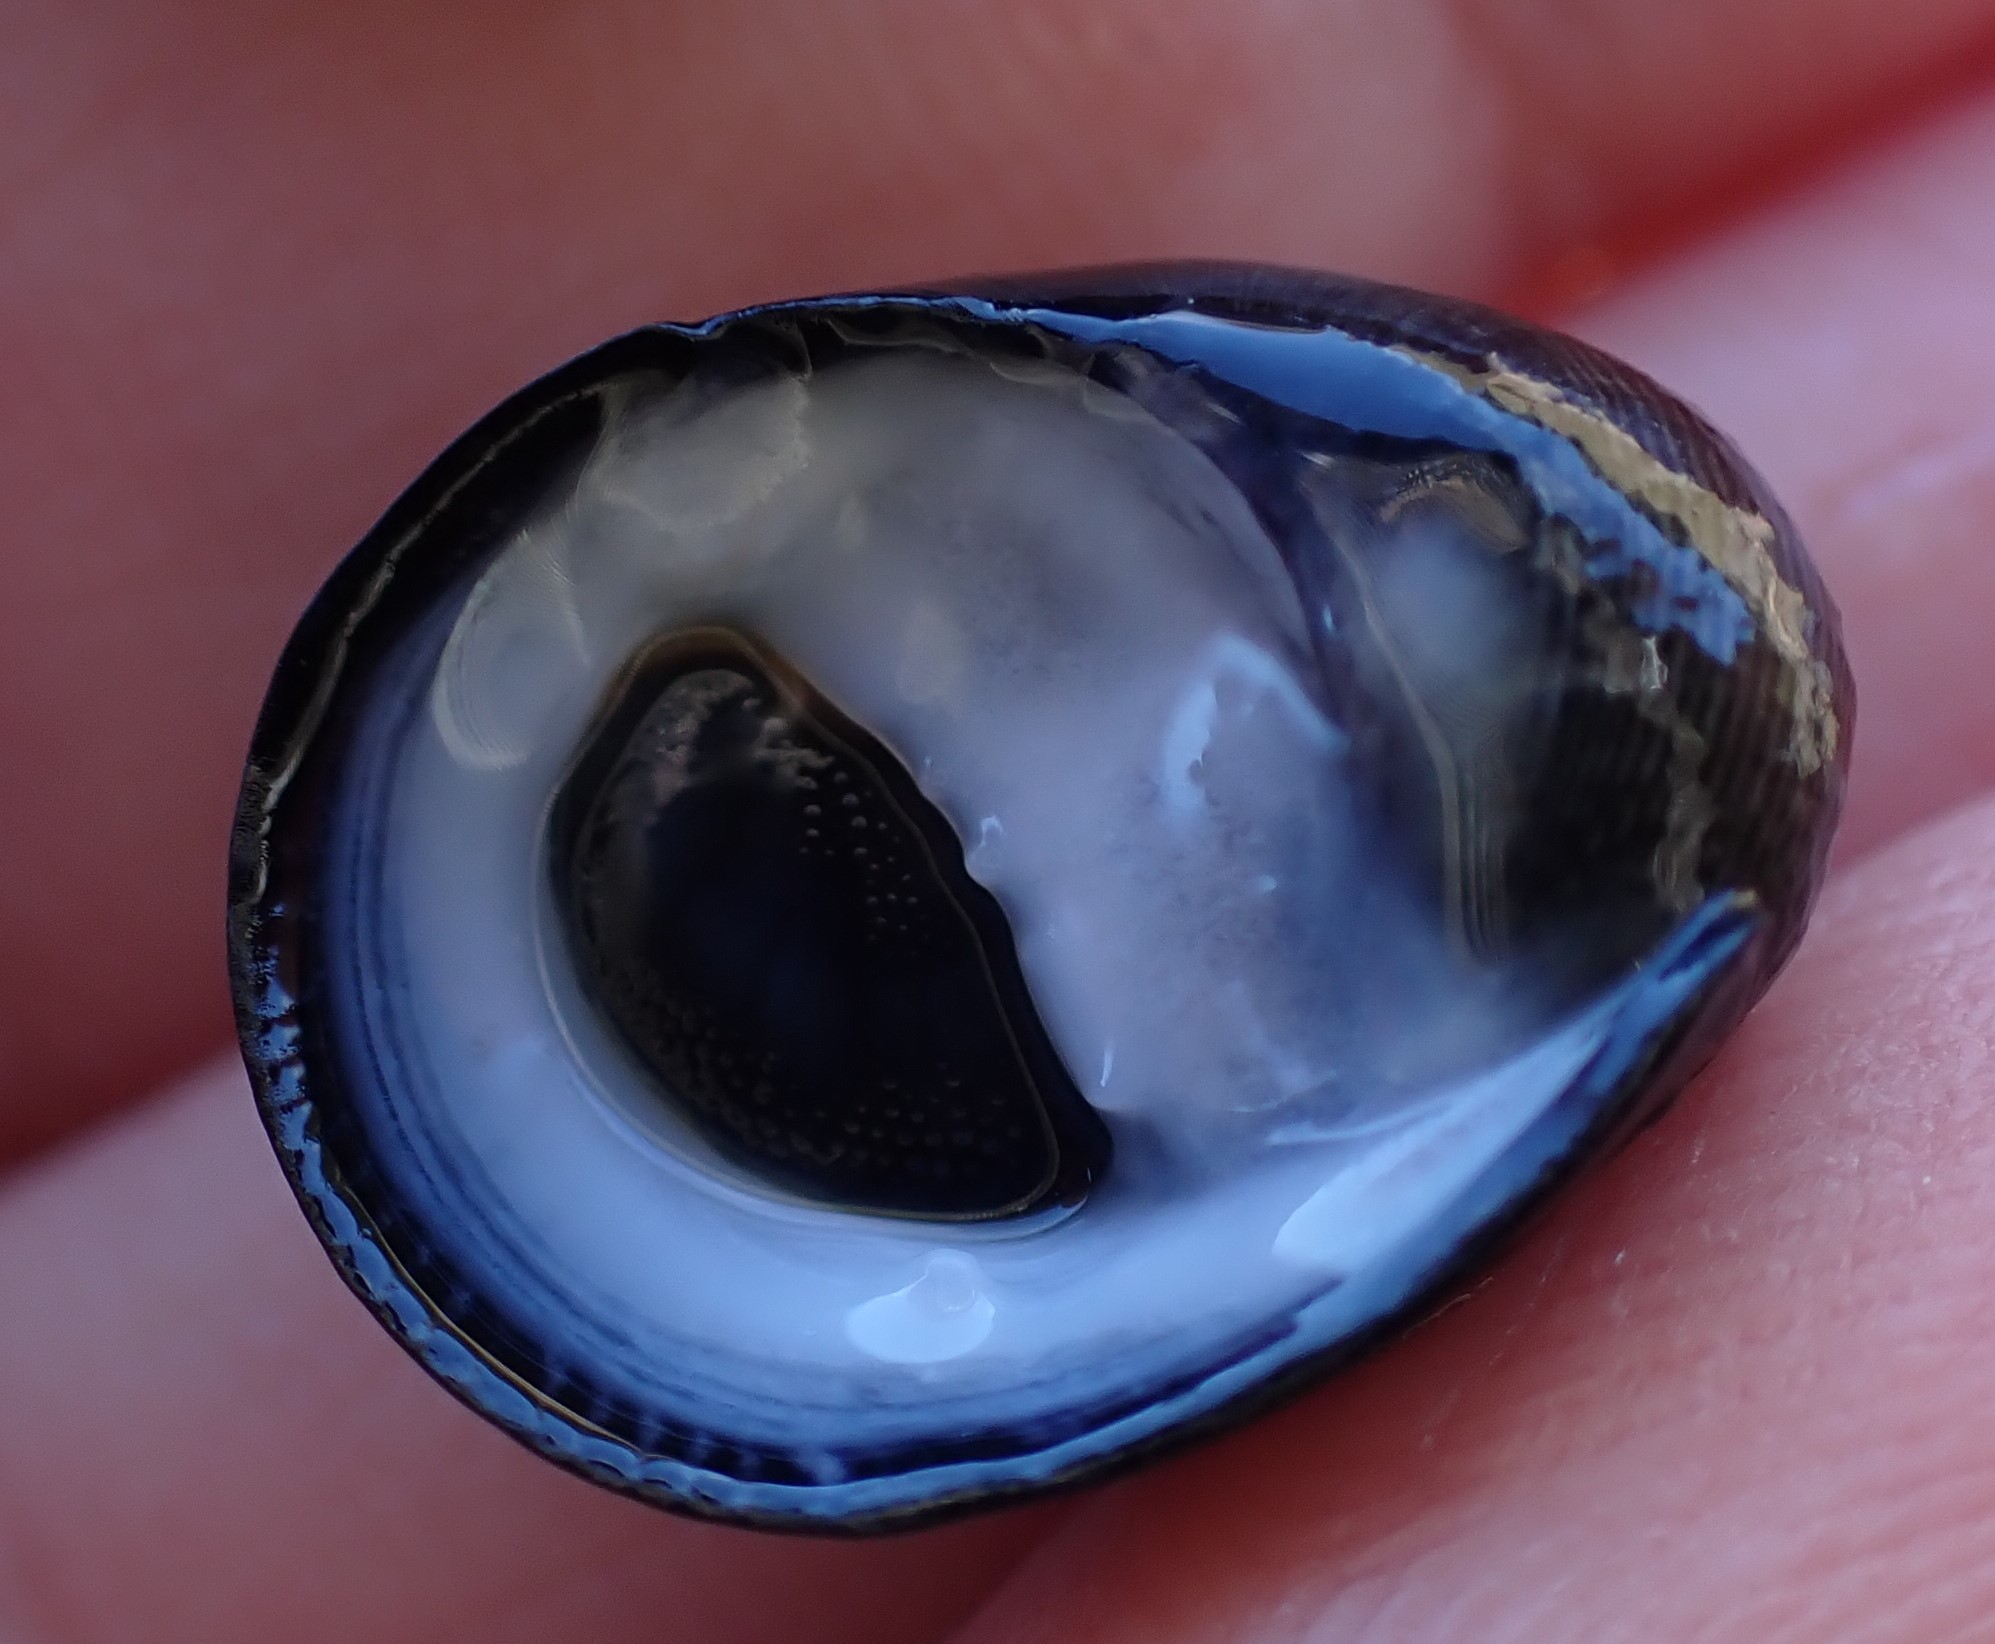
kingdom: Animalia
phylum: Mollusca
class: Gastropoda
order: Cycloneritida
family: Neritidae
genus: Nerita
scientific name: Nerita atramentosa
